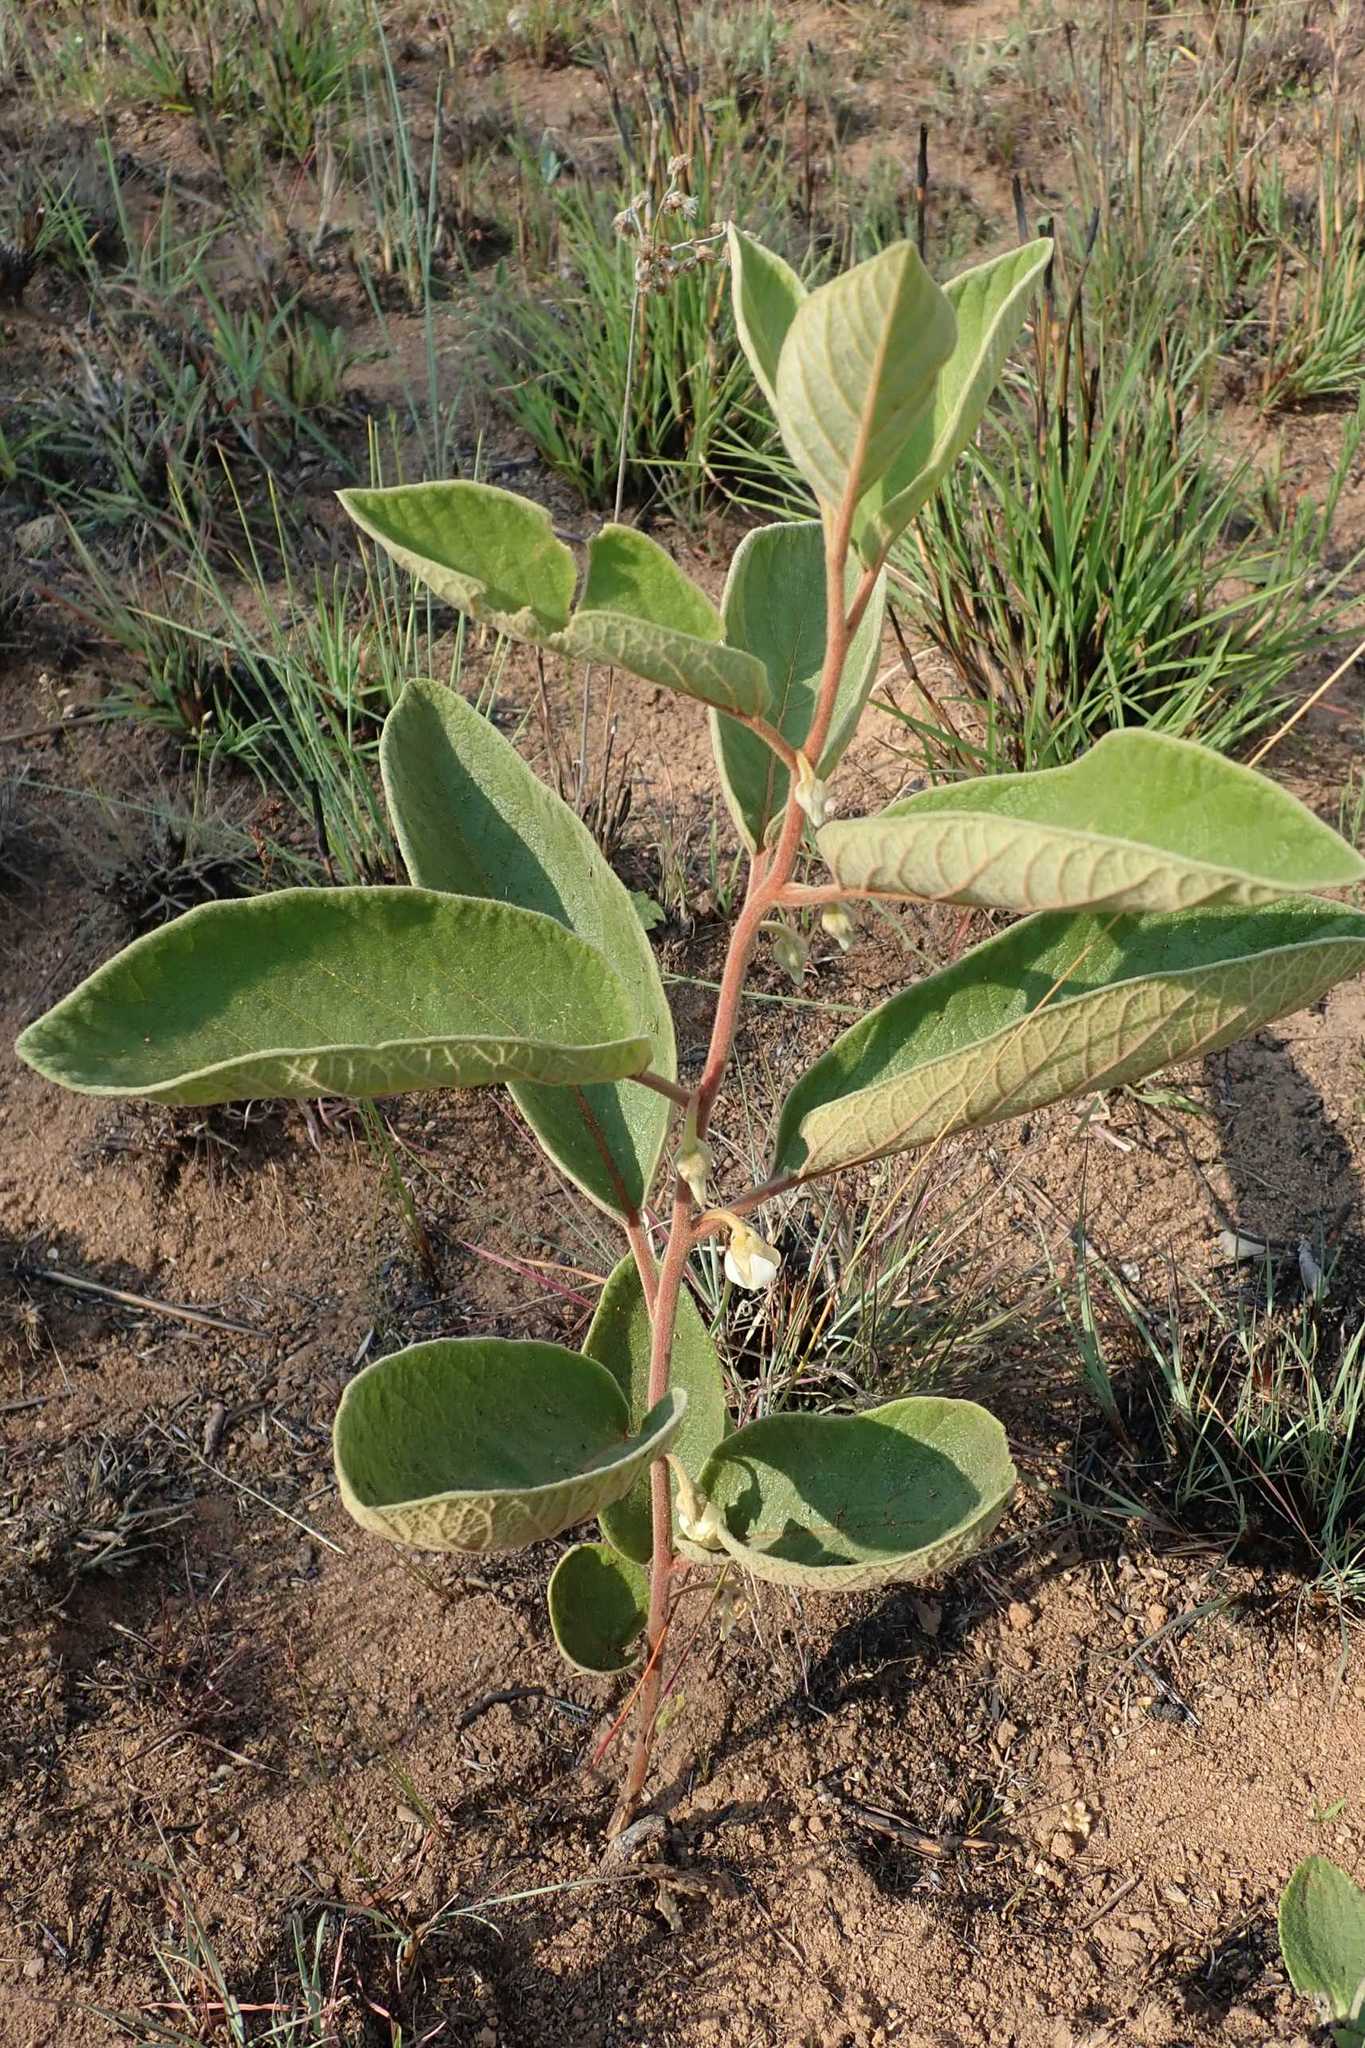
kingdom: Plantae
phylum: Tracheophyta
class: Magnoliopsida
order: Ericales
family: Ebenaceae
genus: Diospyros
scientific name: Diospyros galpinii
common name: Dwarf hairy star-apple
